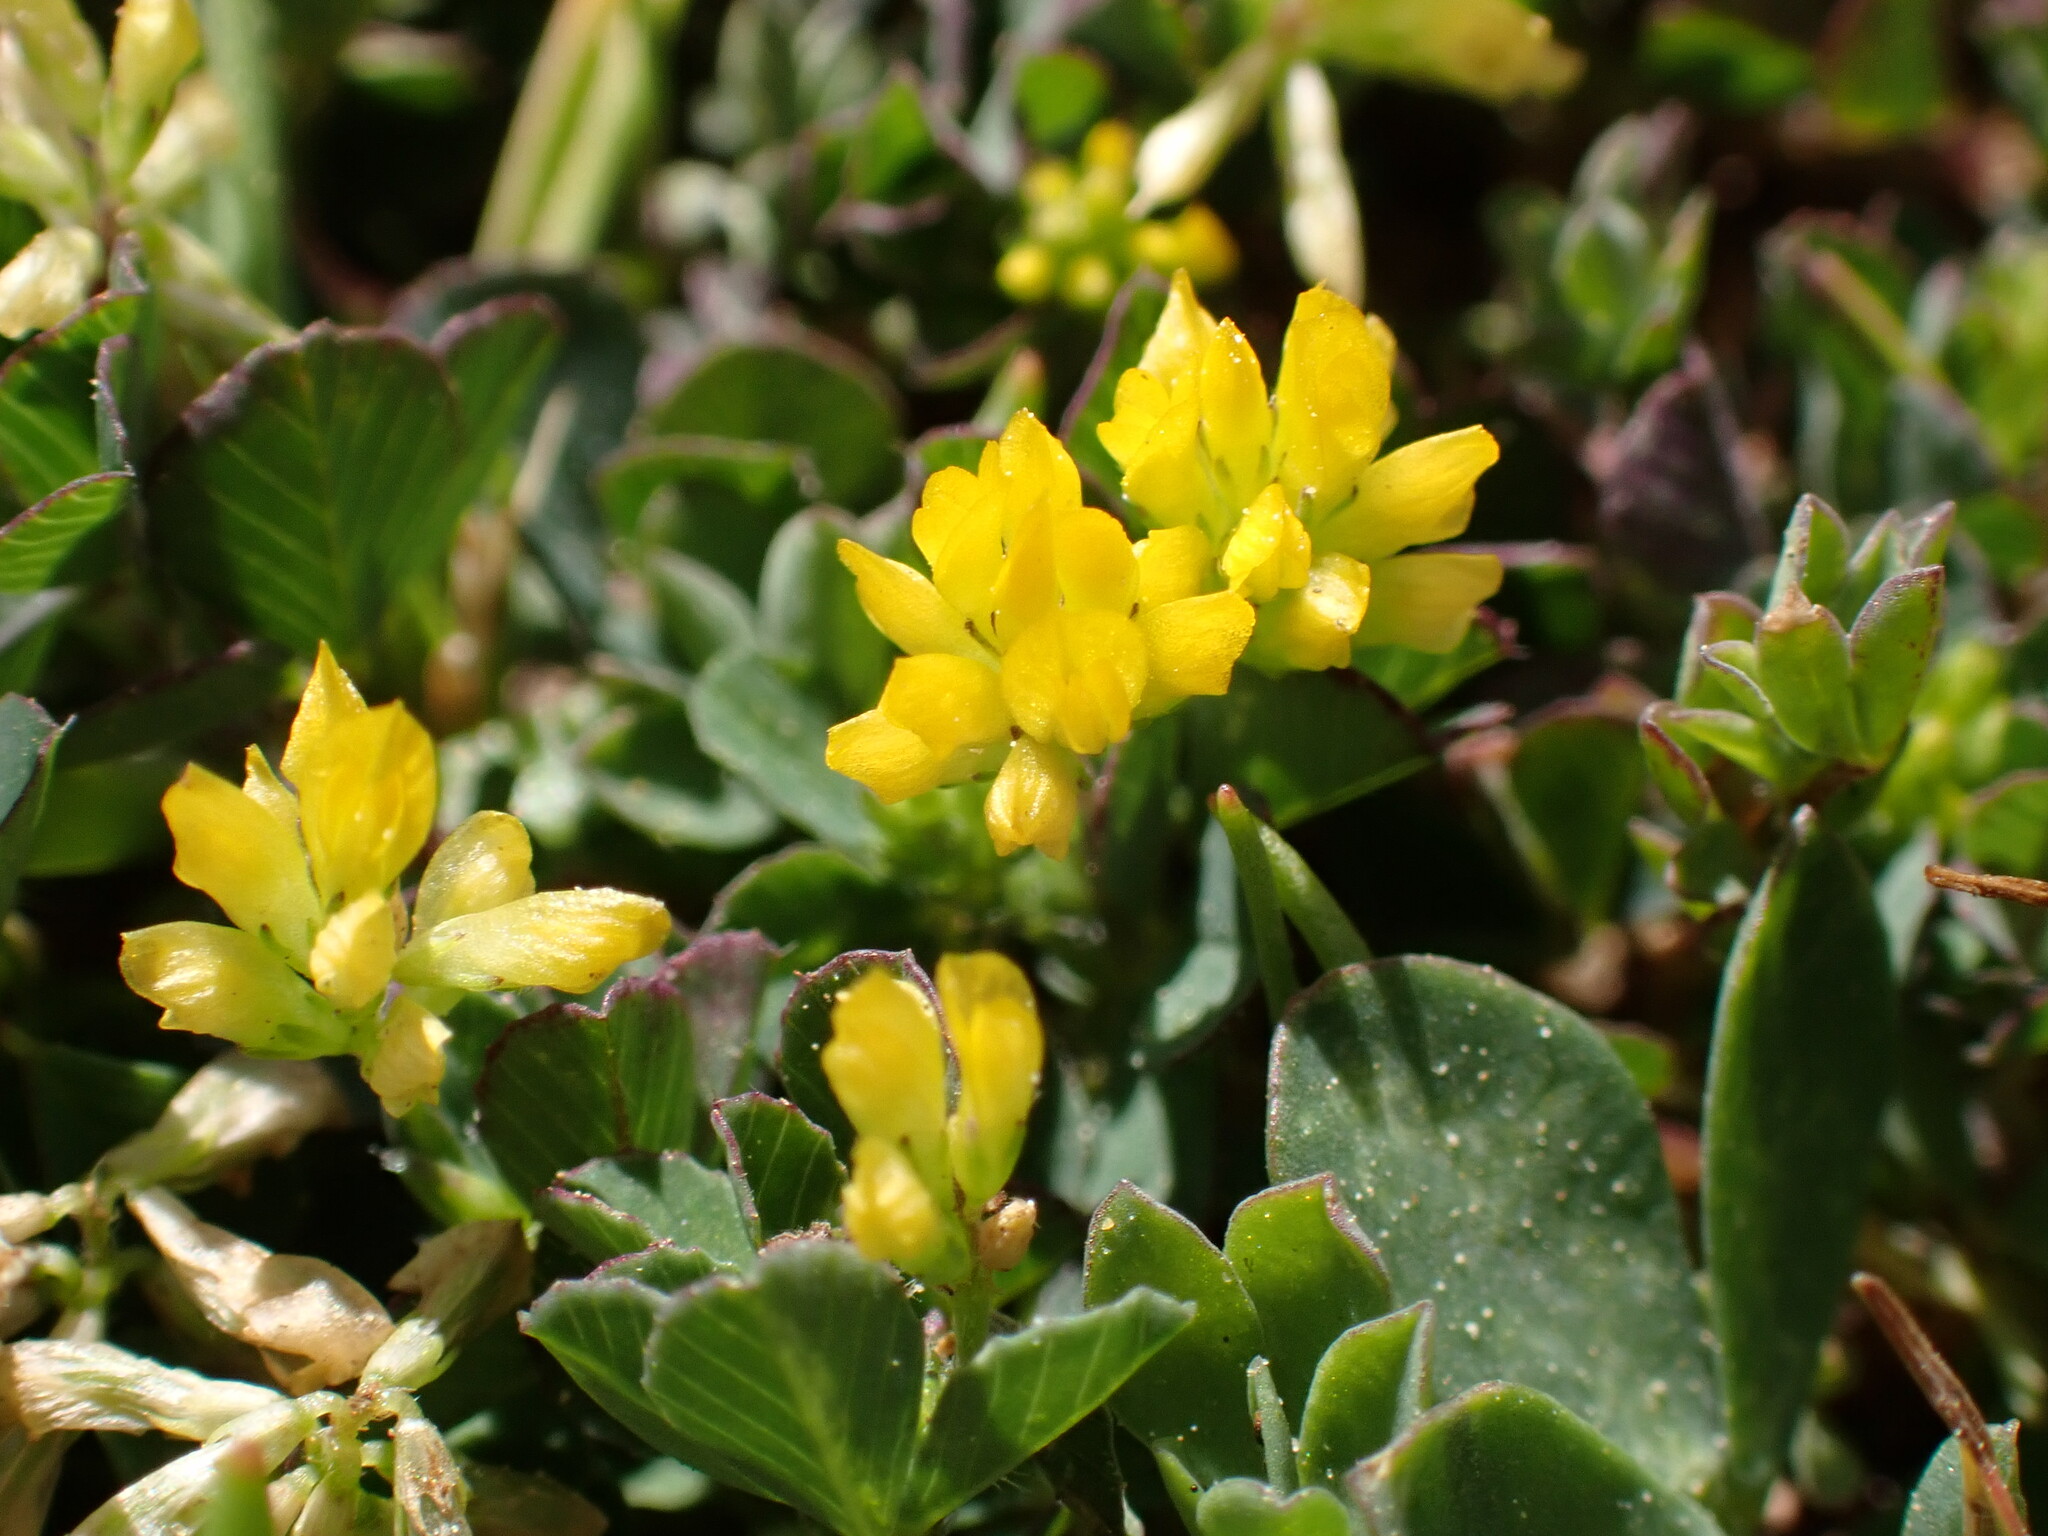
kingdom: Plantae
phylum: Tracheophyta
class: Magnoliopsida
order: Fabales
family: Fabaceae
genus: Trifolium
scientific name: Trifolium dubium
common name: Suckling clover
